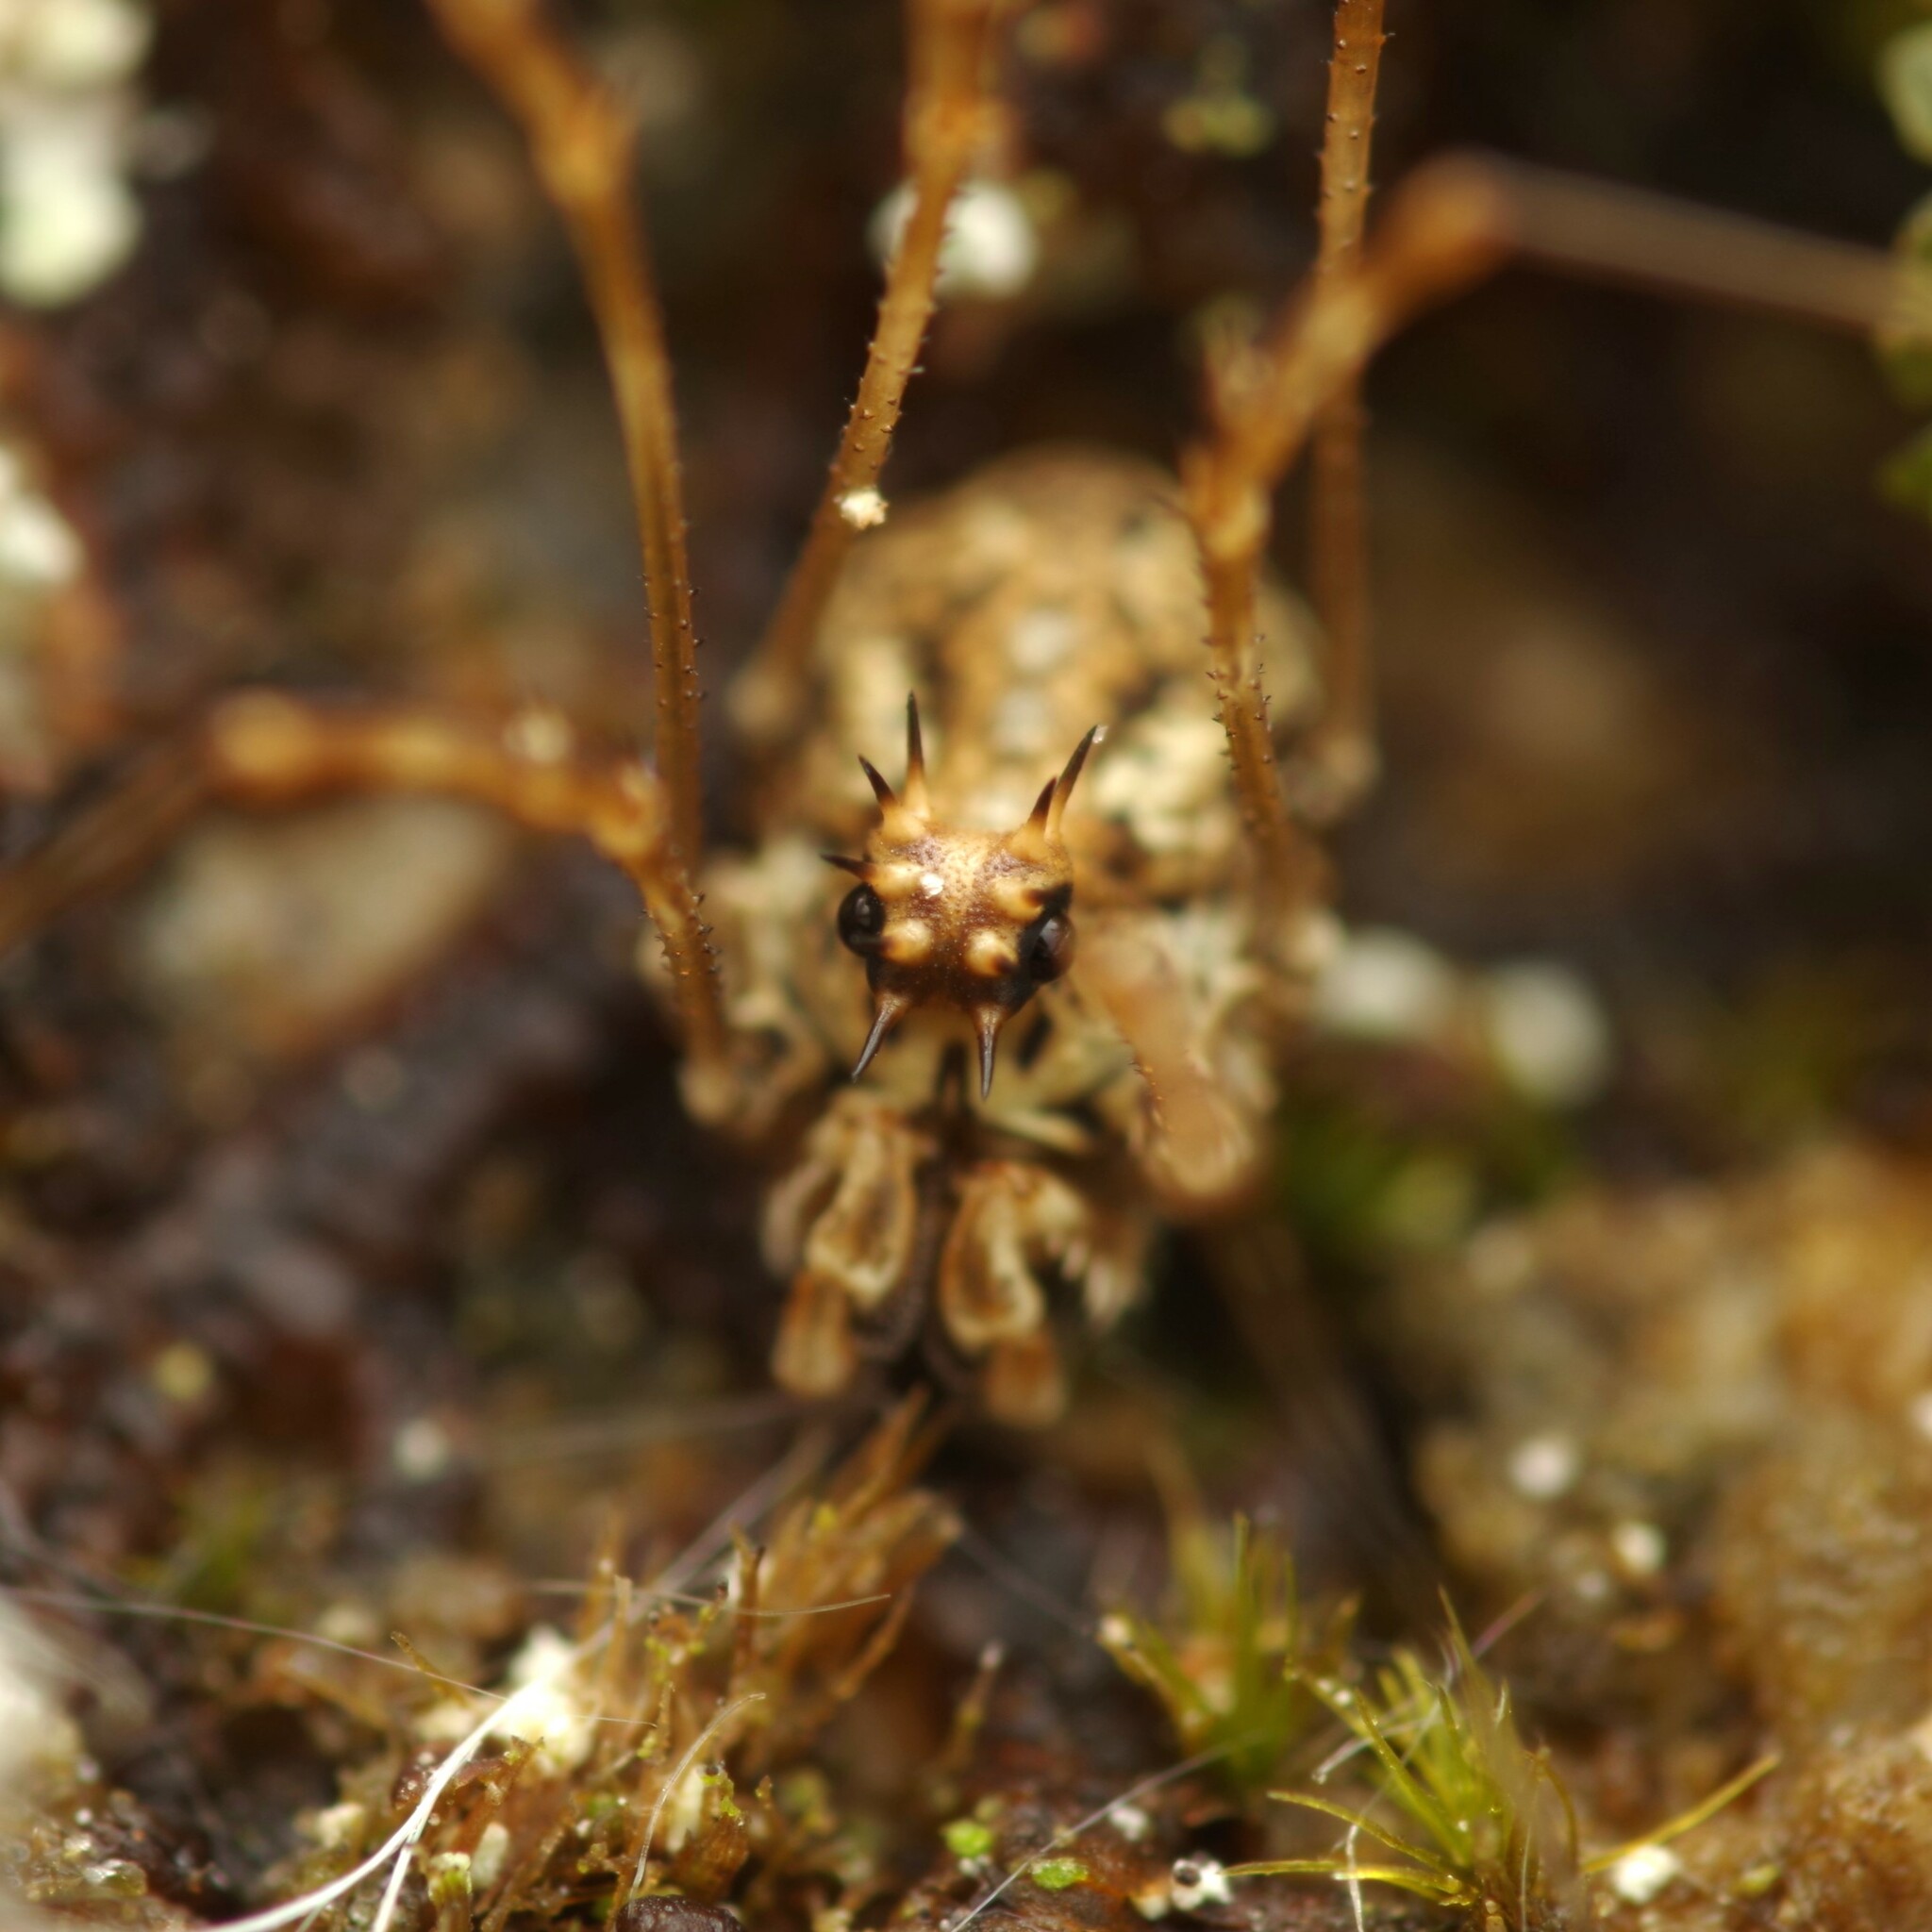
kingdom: Animalia
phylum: Arthropoda
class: Arachnida
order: Opiliones
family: Phalangiidae
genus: Megabunus
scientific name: Megabunus diadema
